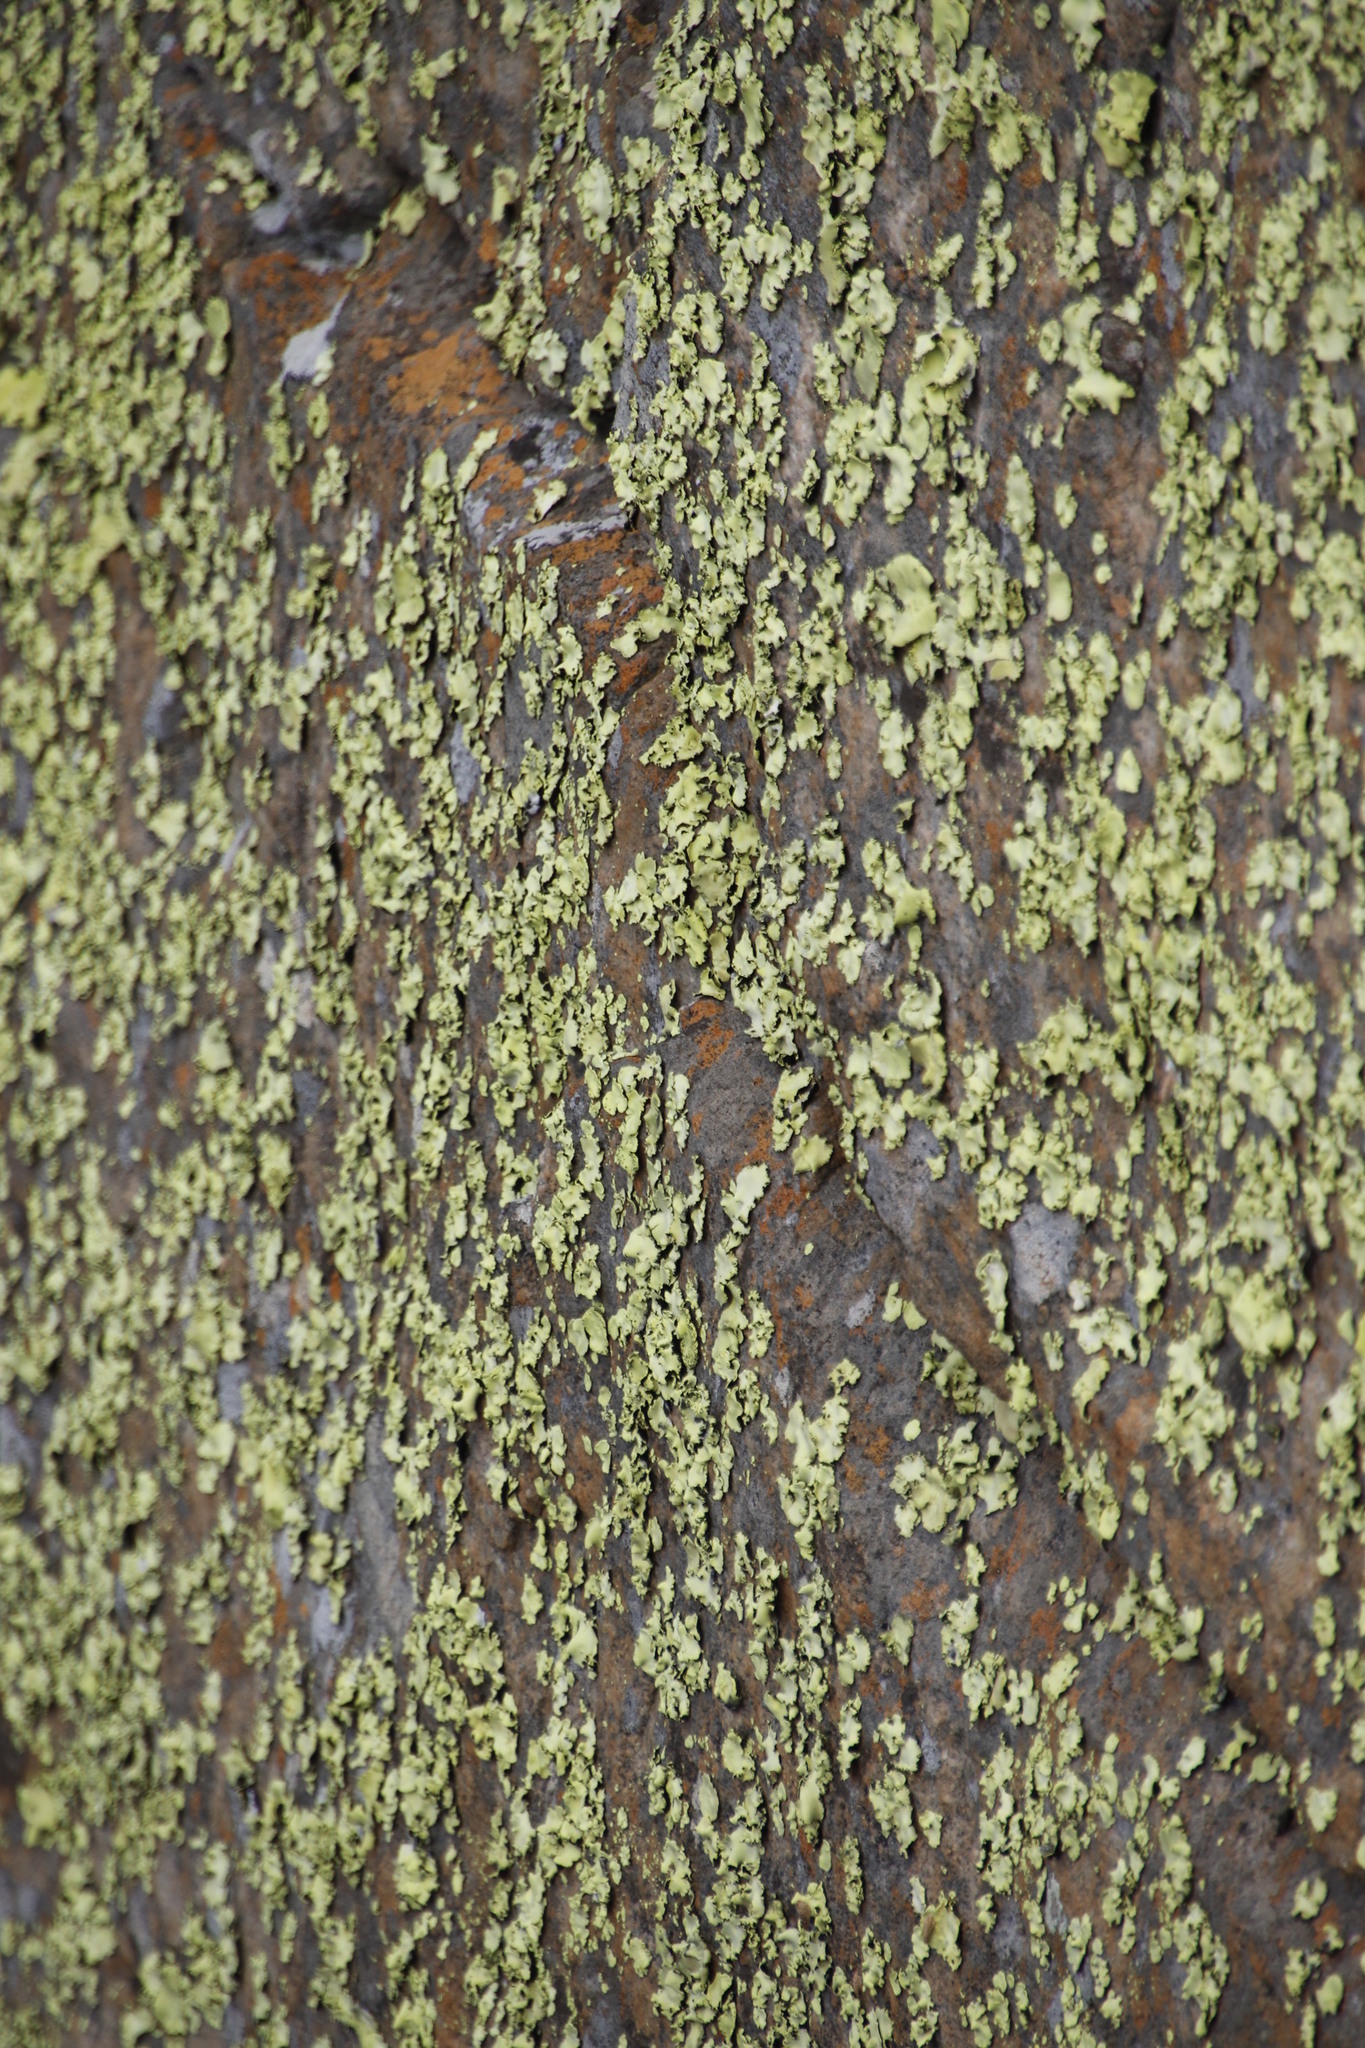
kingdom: Fungi
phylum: Ascomycota
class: Lecanoromycetes
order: Caliciales
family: Caliciaceae
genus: Dermatiscum
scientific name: Dermatiscum thunbergii
